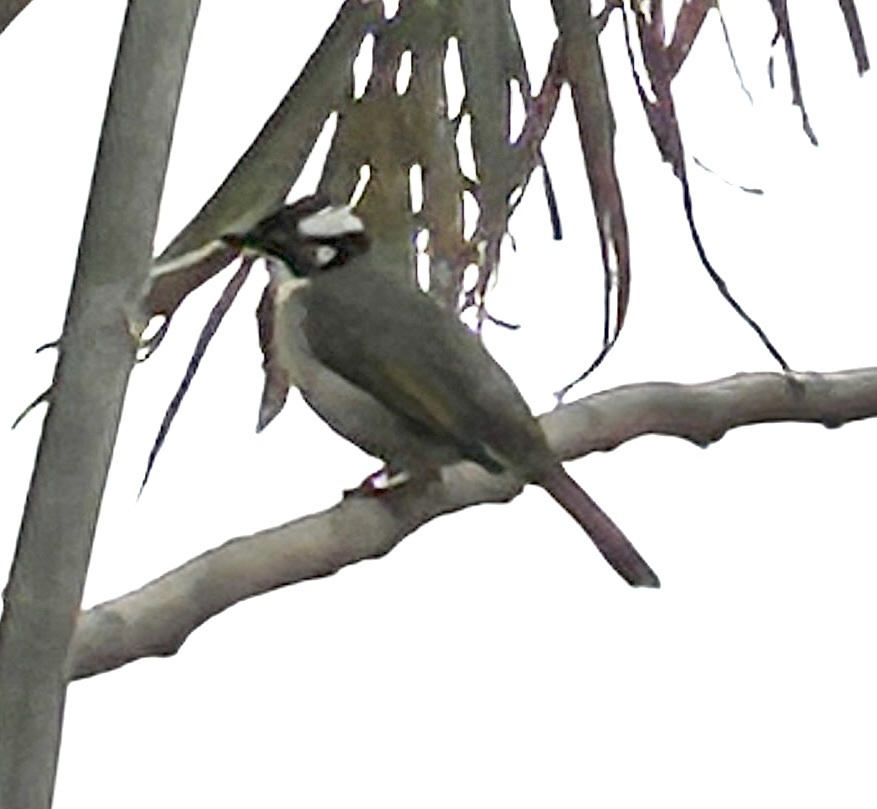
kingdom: Animalia
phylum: Chordata
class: Aves
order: Passeriformes
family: Pycnonotidae
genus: Pycnonotus
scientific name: Pycnonotus sinensis
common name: Light-vented bulbul
